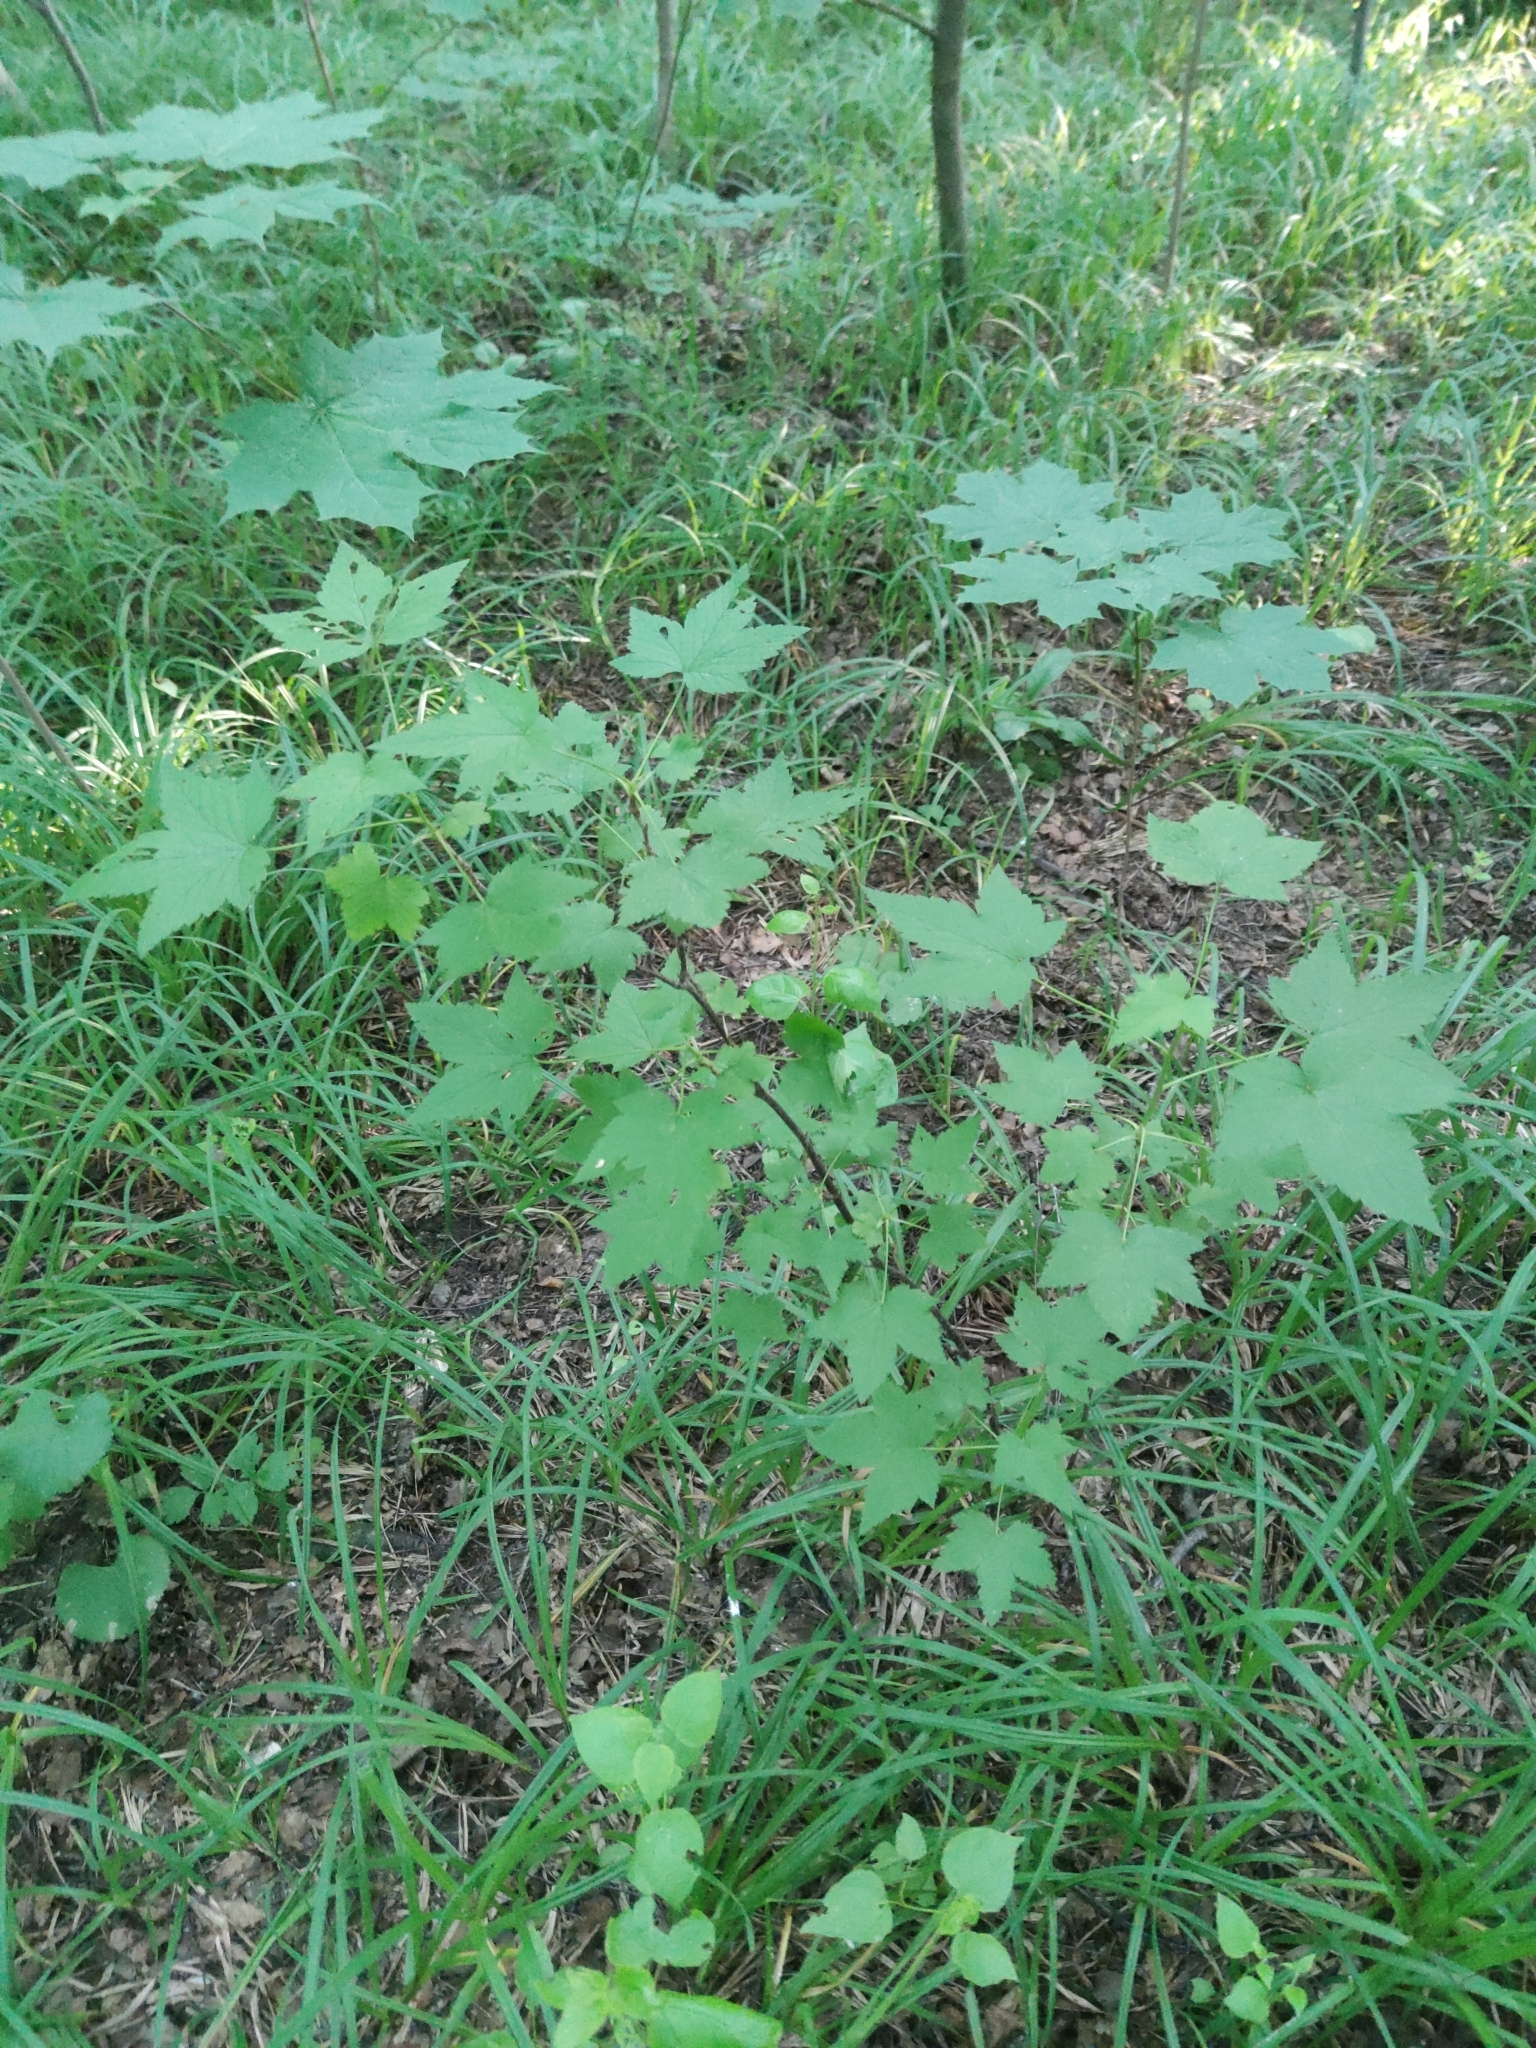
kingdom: Plantae
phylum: Tracheophyta
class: Magnoliopsida
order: Saxifragales
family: Grossulariaceae
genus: Ribes
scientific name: Ribes rubrum
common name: Red currant
